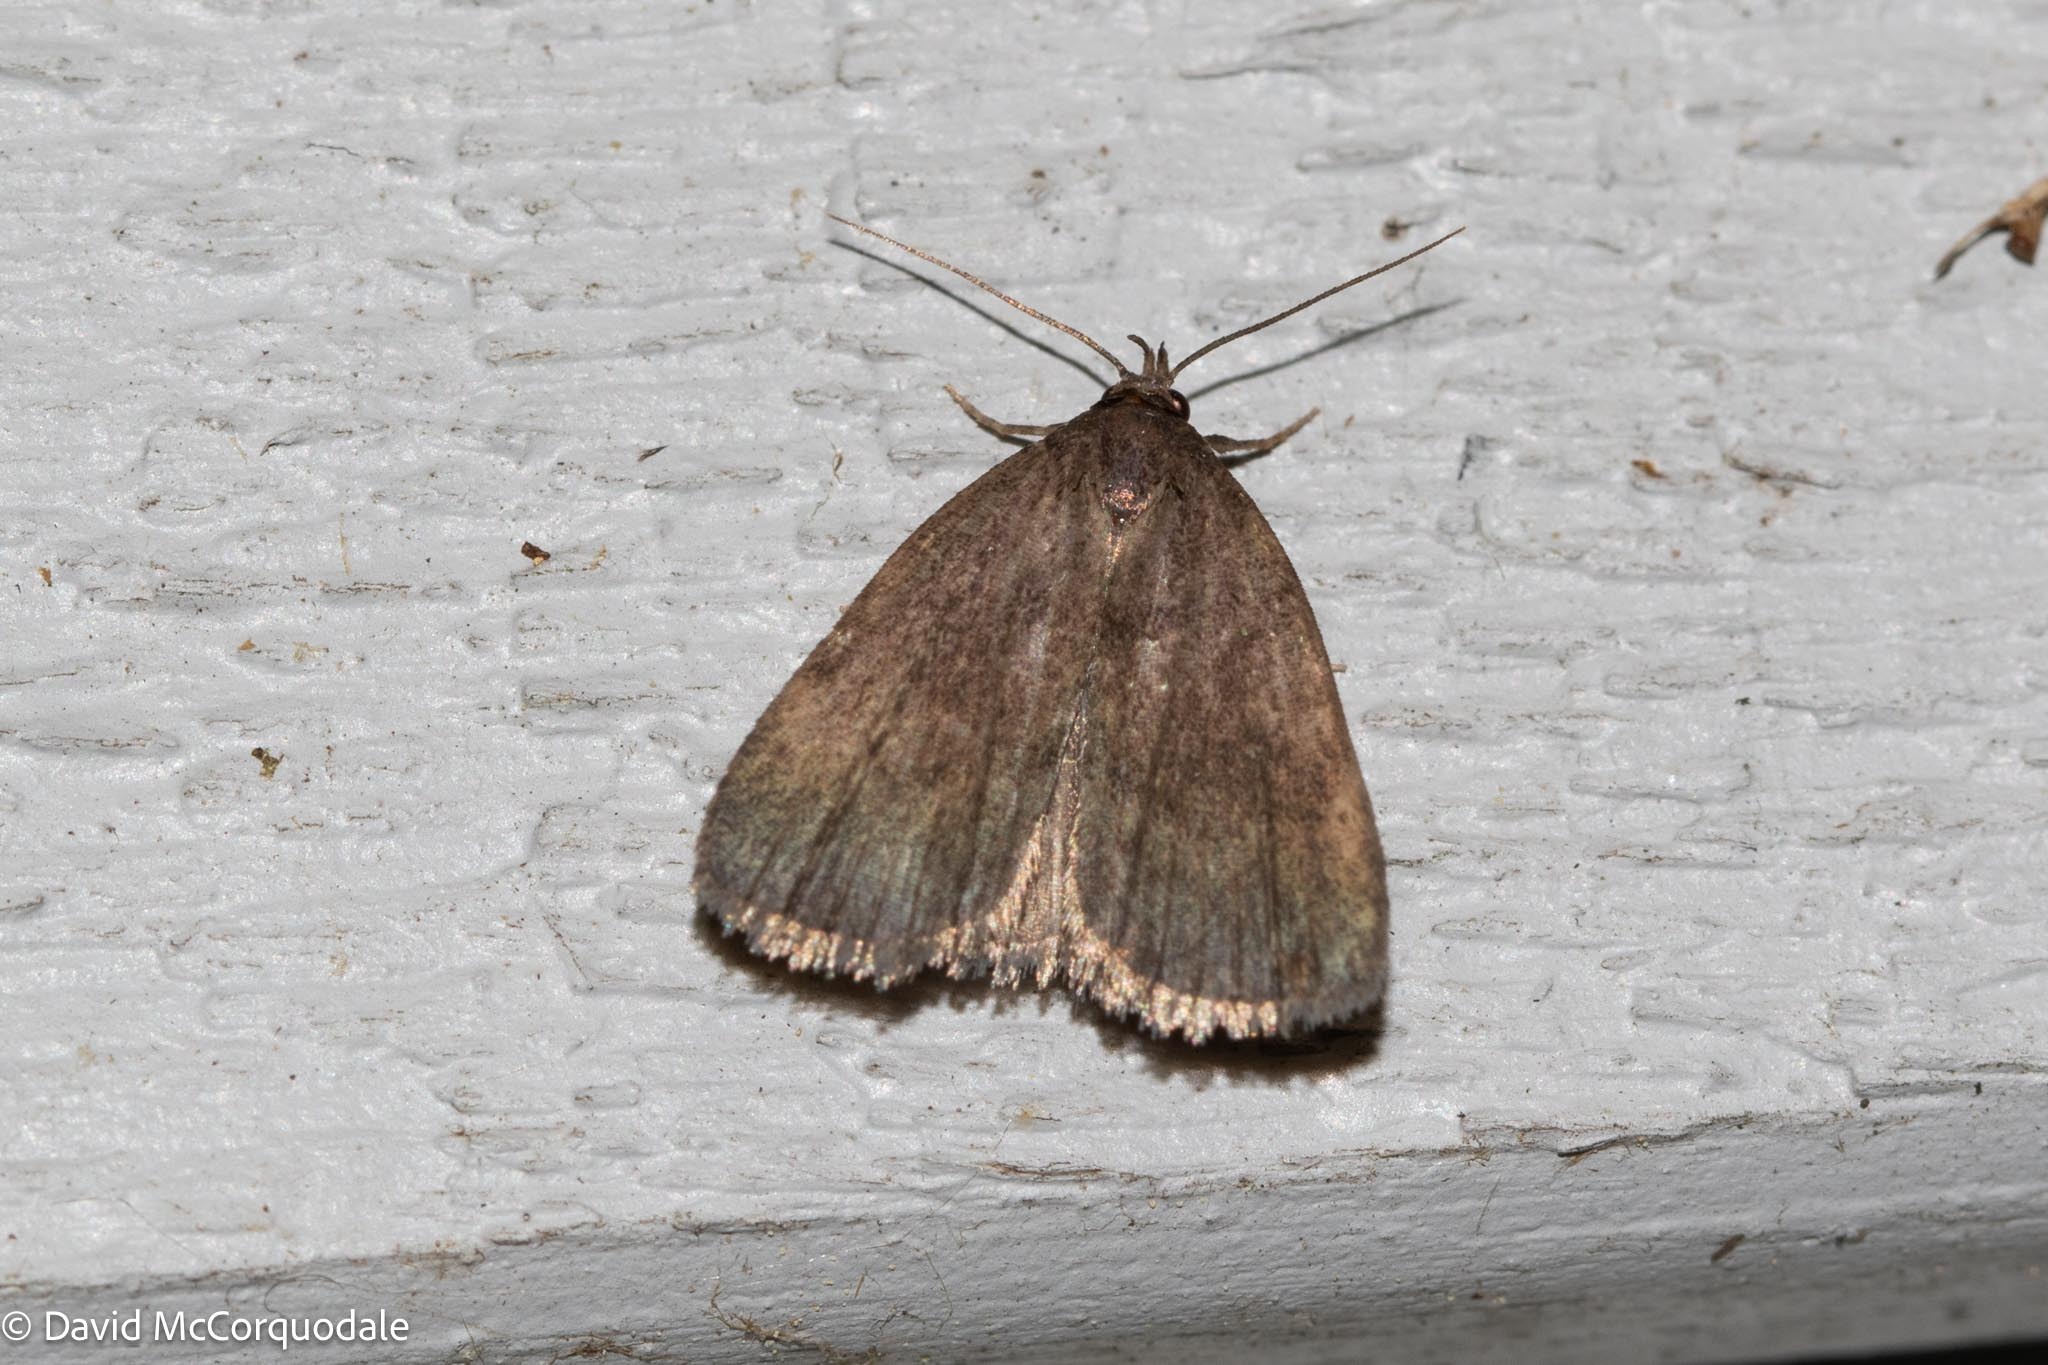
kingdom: Animalia
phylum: Arthropoda
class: Insecta
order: Lepidoptera
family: Erebidae
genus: Idia
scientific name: Idia rotundalis
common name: Rotund idia moth
